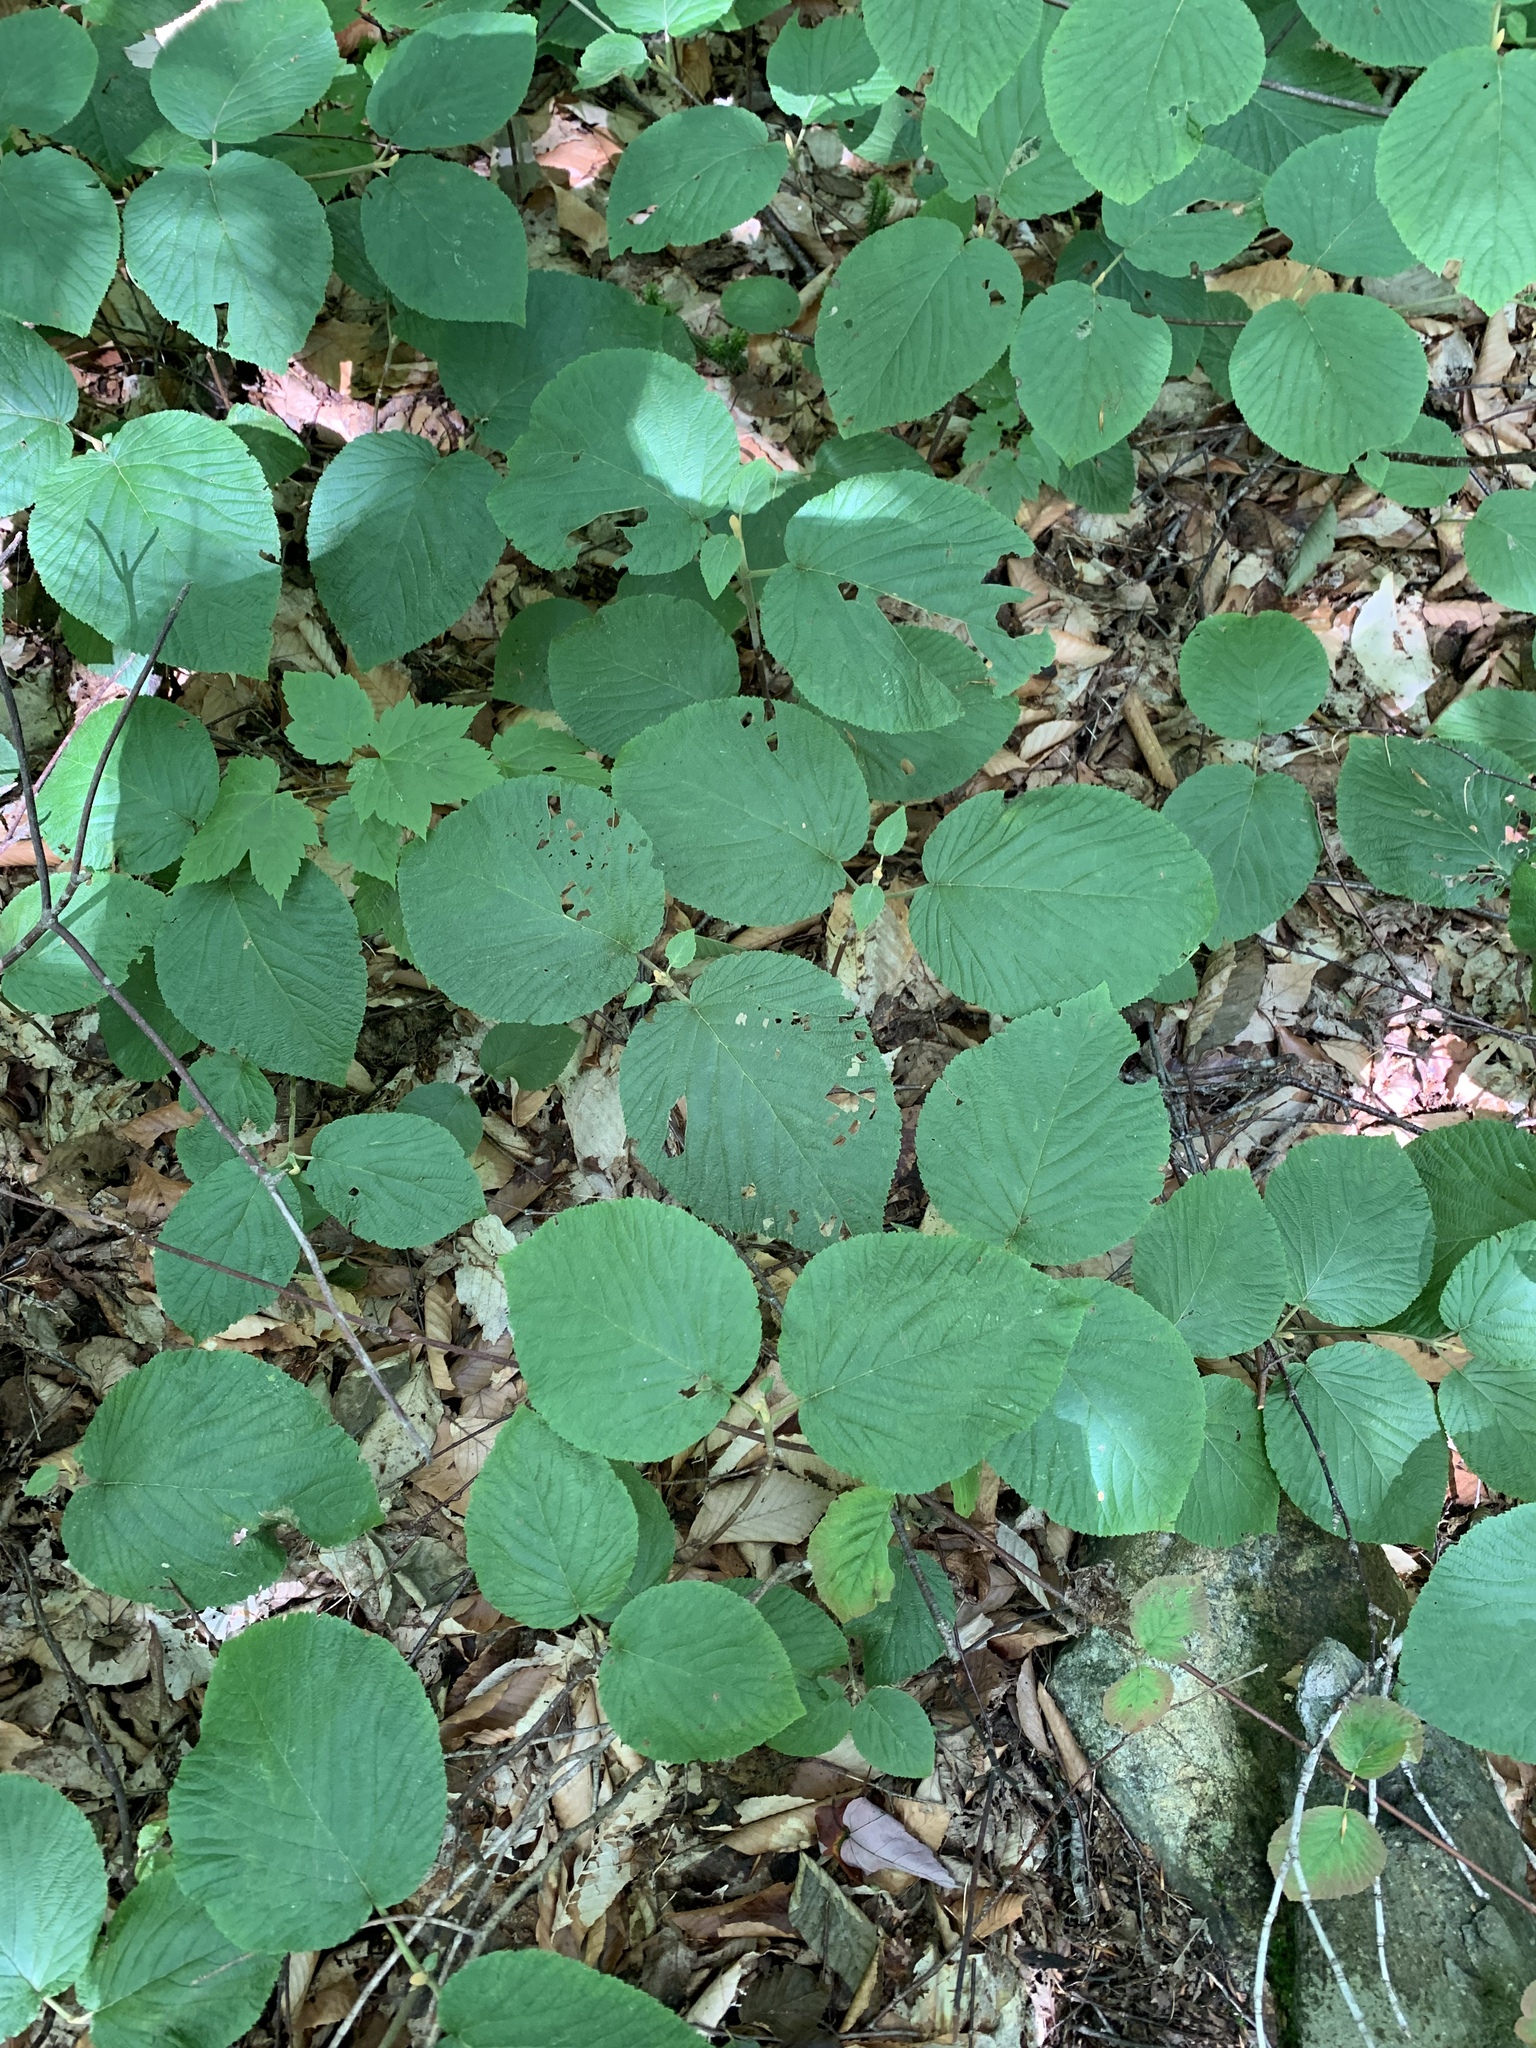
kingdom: Plantae
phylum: Tracheophyta
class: Magnoliopsida
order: Dipsacales
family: Viburnaceae
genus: Viburnum
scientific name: Viburnum lantanoides
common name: Hobblebush
